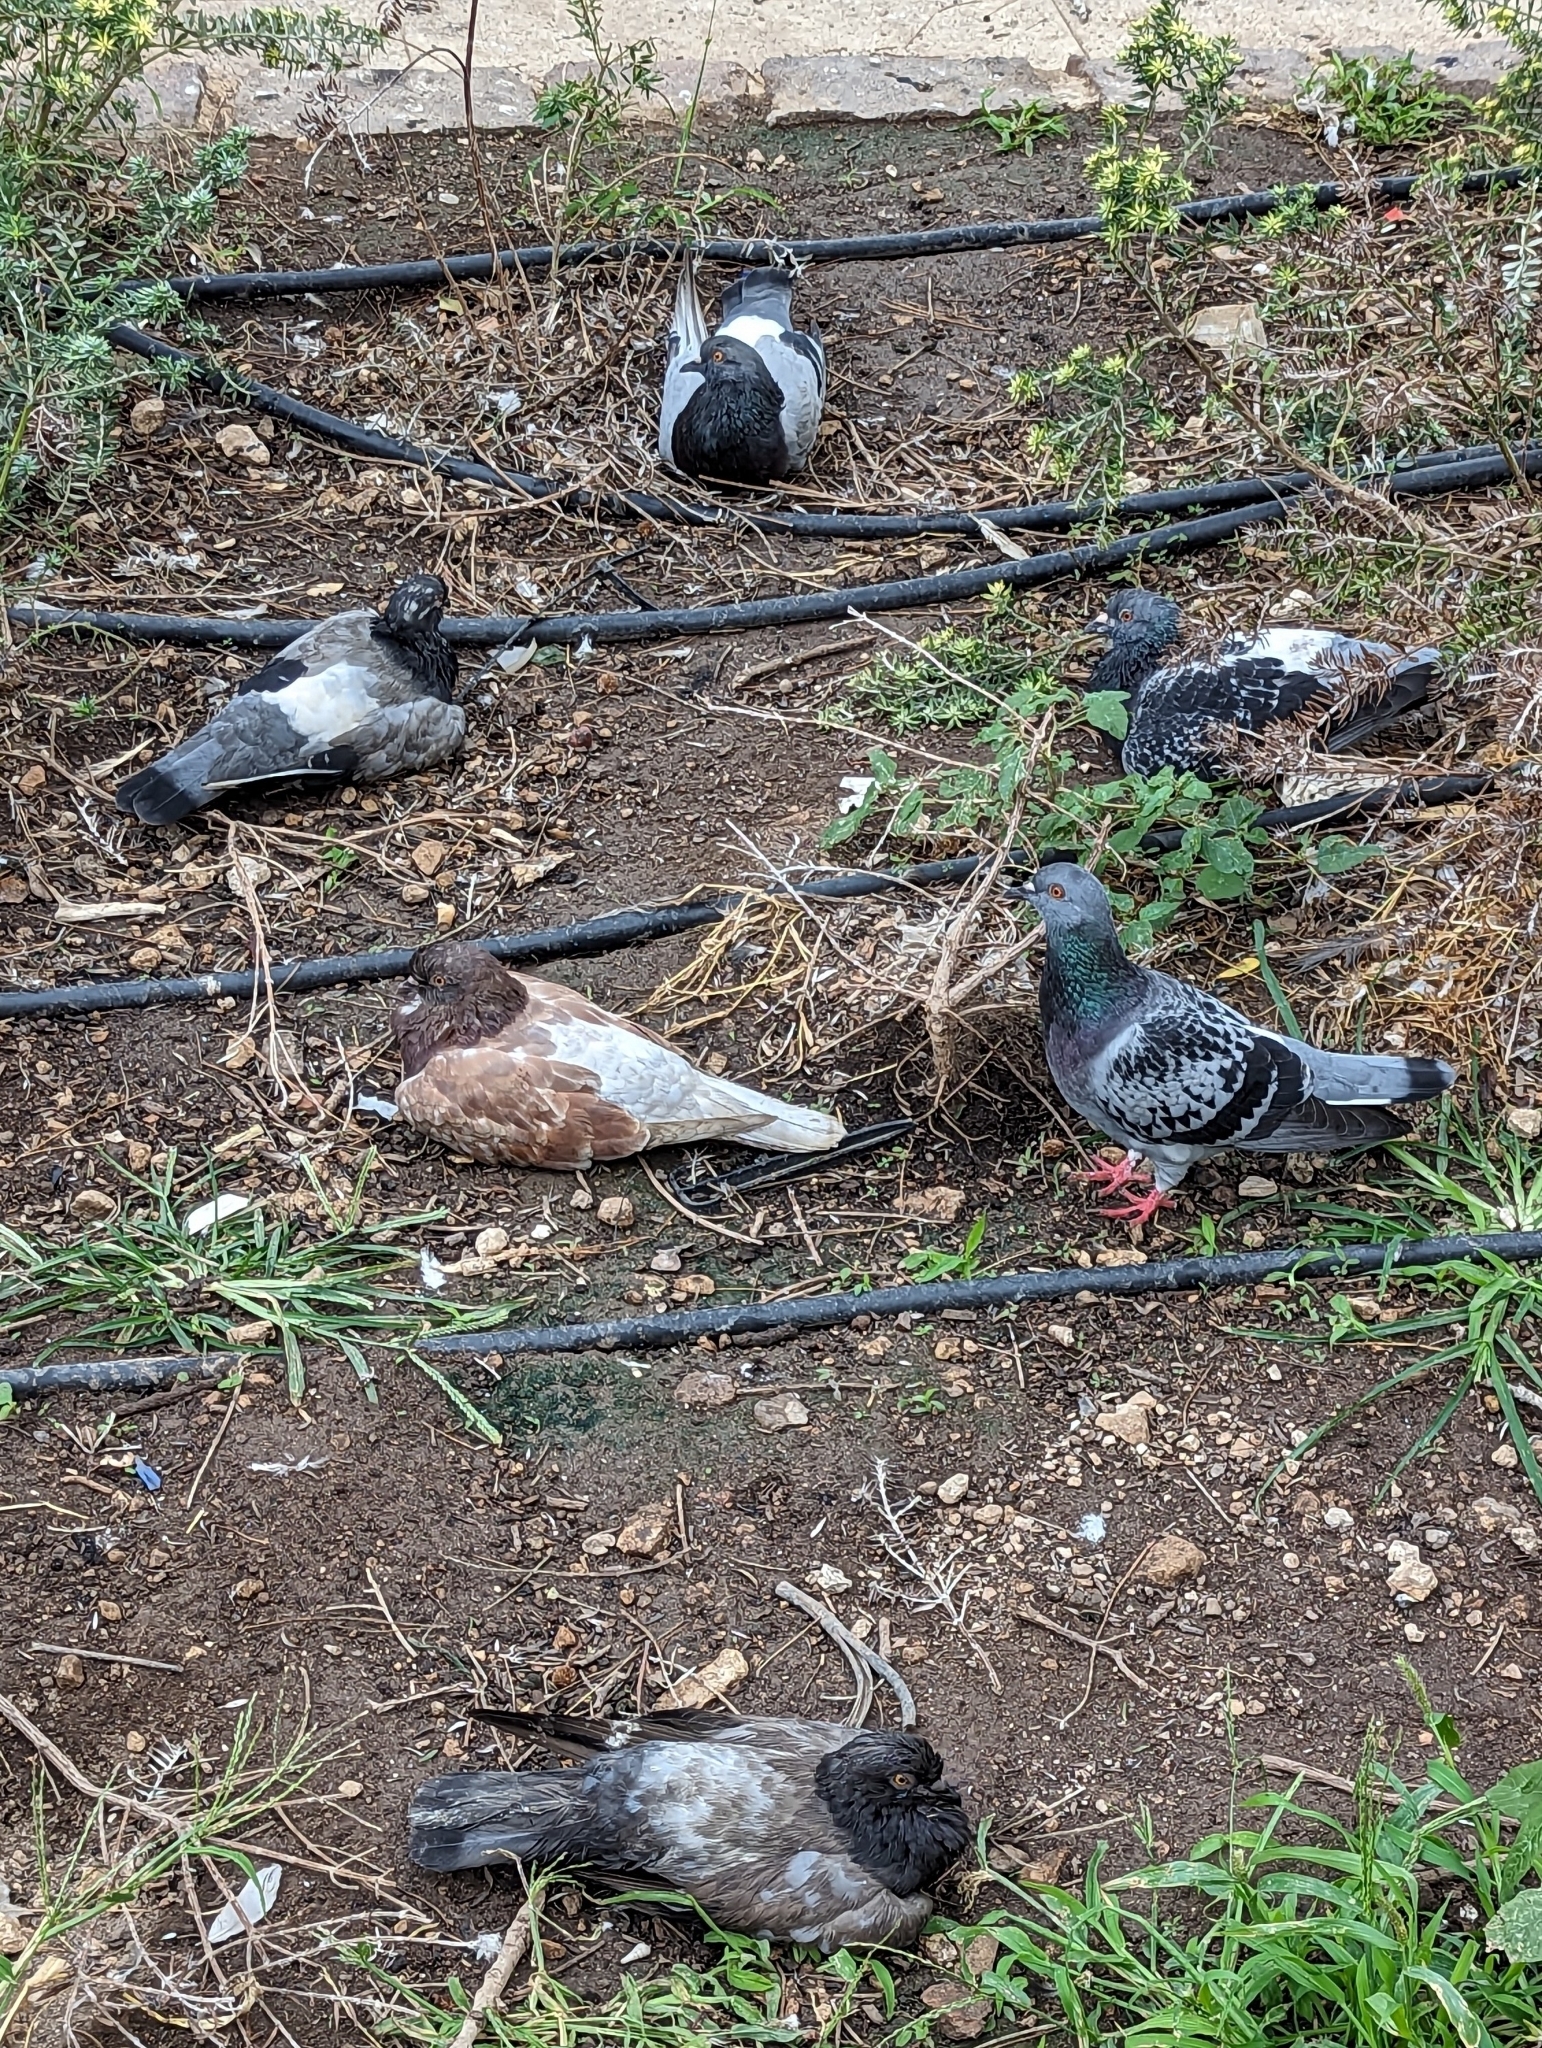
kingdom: Animalia
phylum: Chordata
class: Aves
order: Columbiformes
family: Columbidae
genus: Columba
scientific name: Columba livia
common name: Rock pigeon
